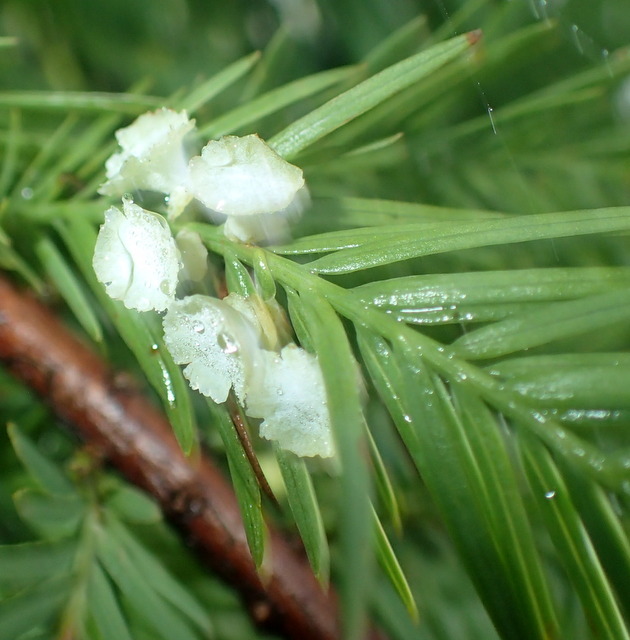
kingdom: Animalia
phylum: Arthropoda
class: Insecta
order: Diptera
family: Cecidomyiidae
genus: Taxodiomyia
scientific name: Taxodiomyia cupressi
